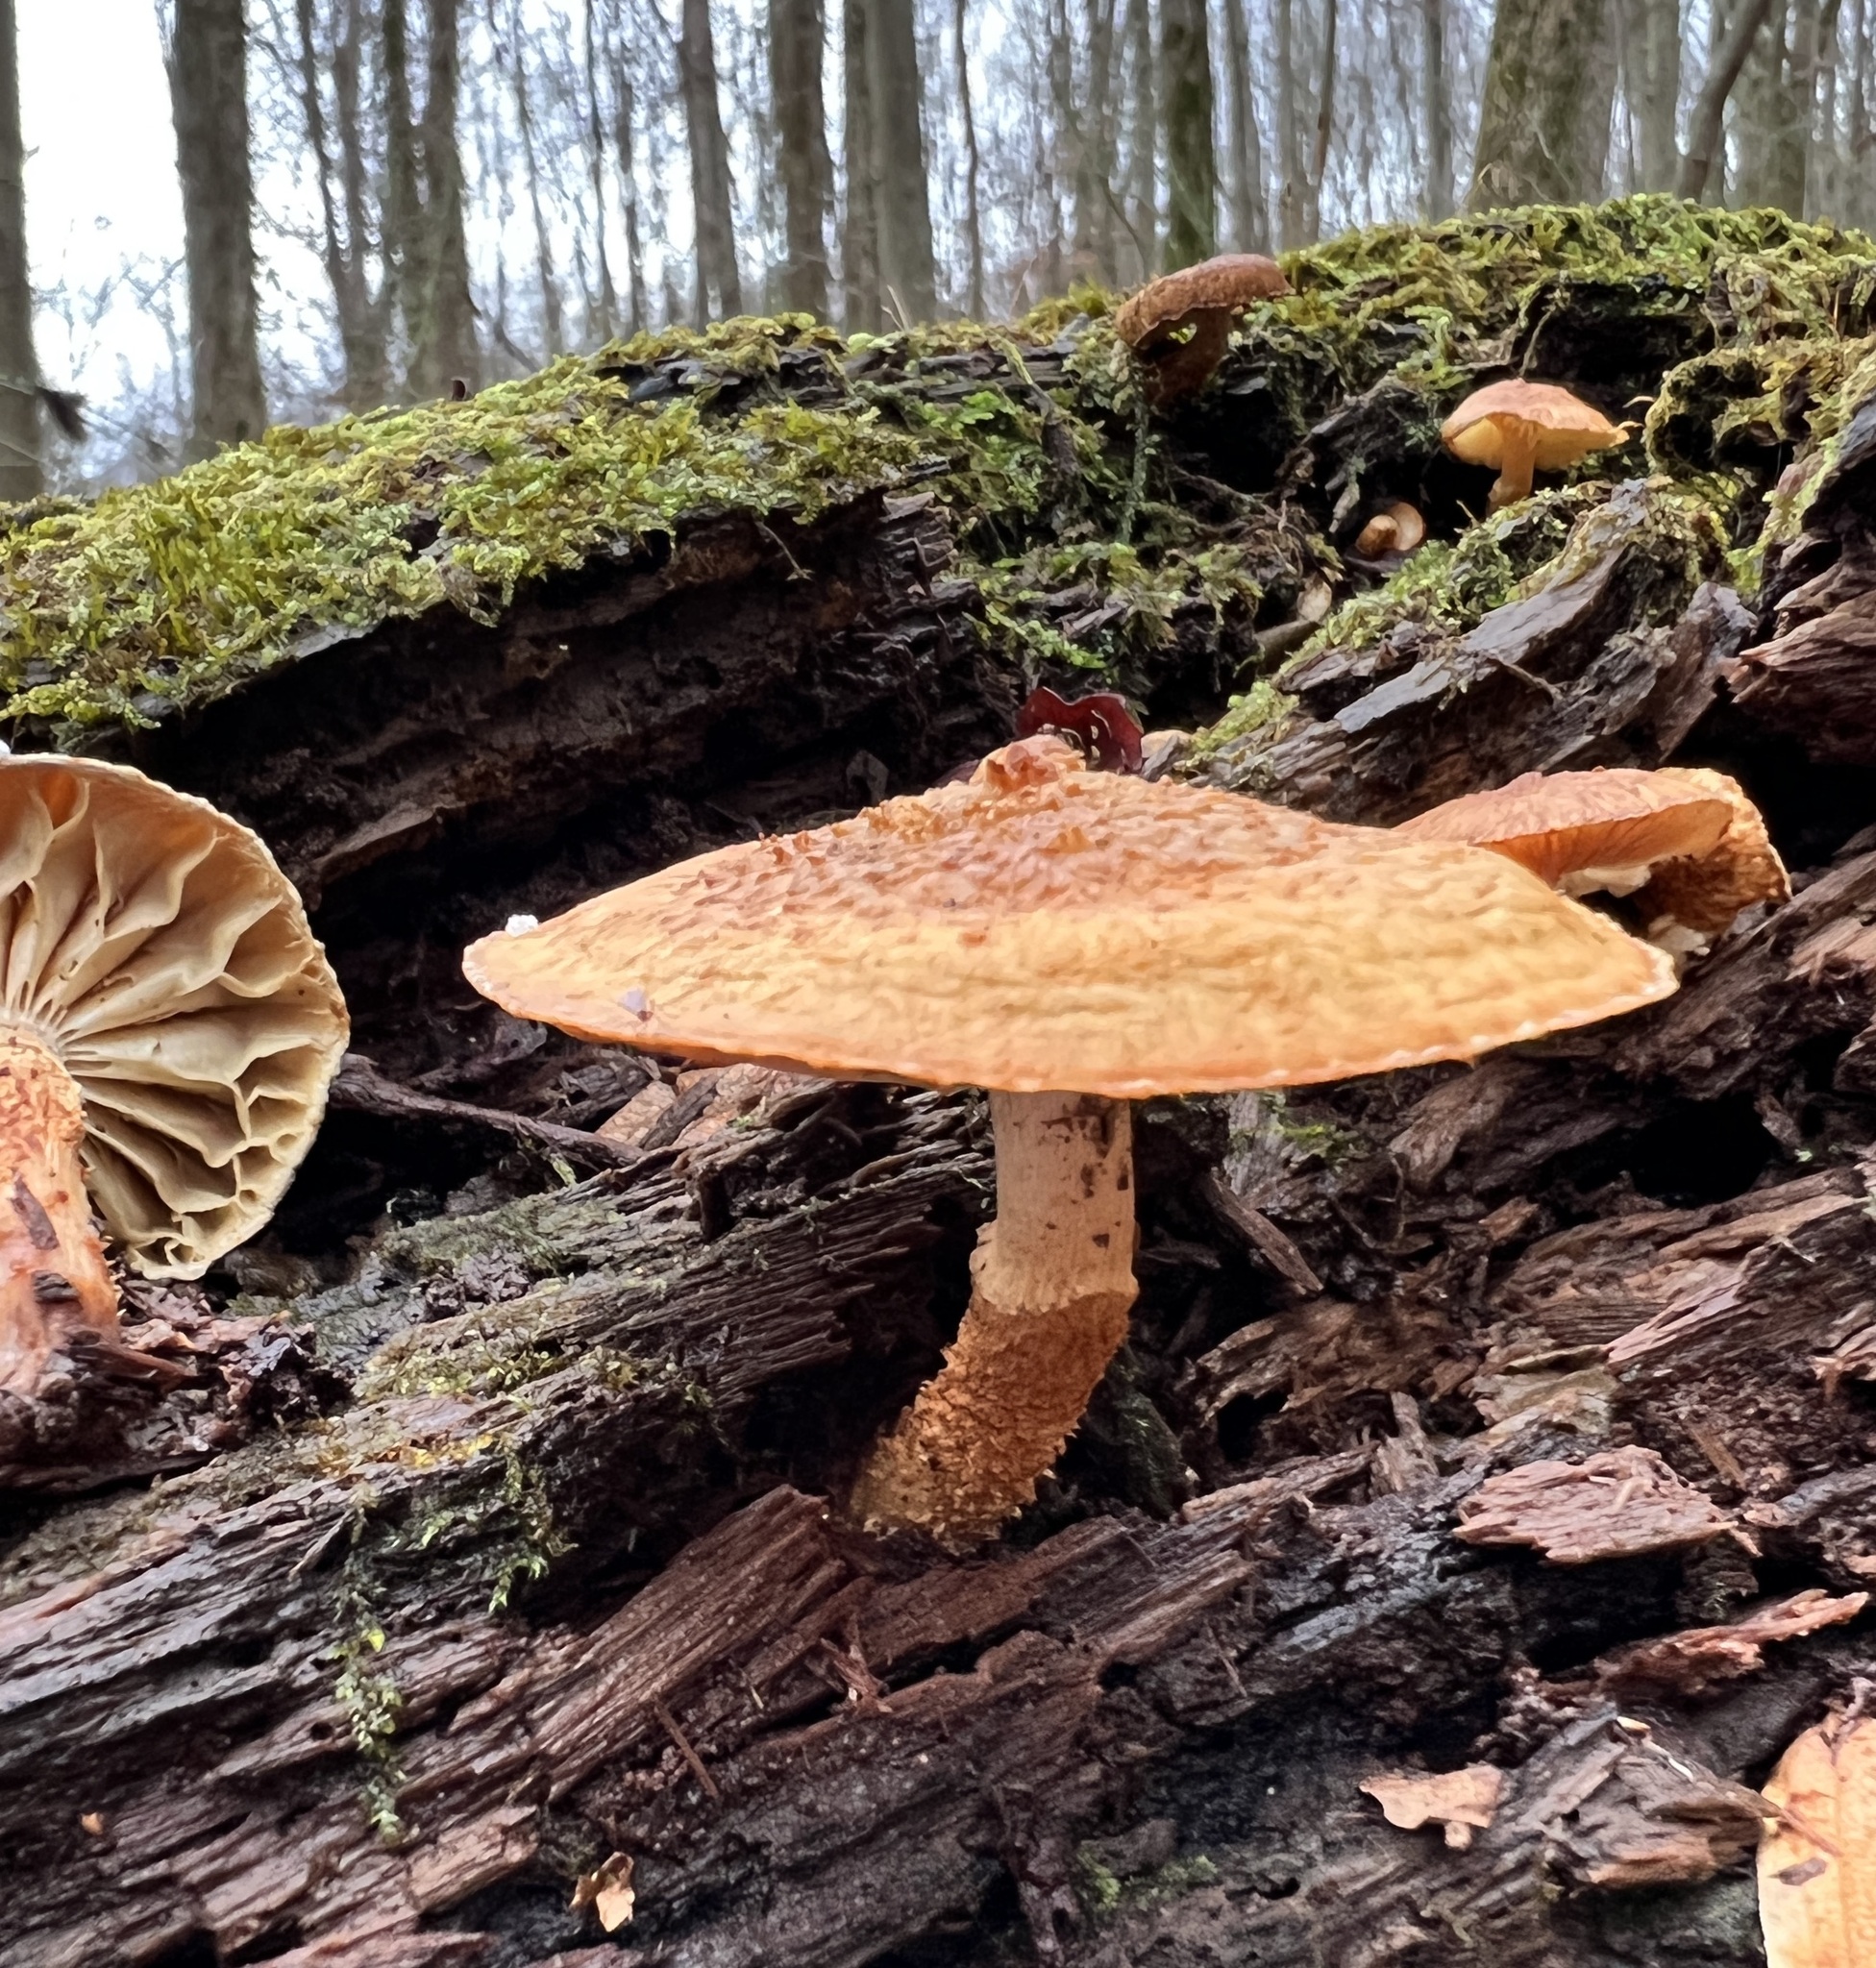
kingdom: Fungi
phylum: Basidiomycota
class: Agaricomycetes
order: Agaricales
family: Agaricaceae
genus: Leucopholiota
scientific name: Leucopholiota decorosa
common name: Decorated pholiota
